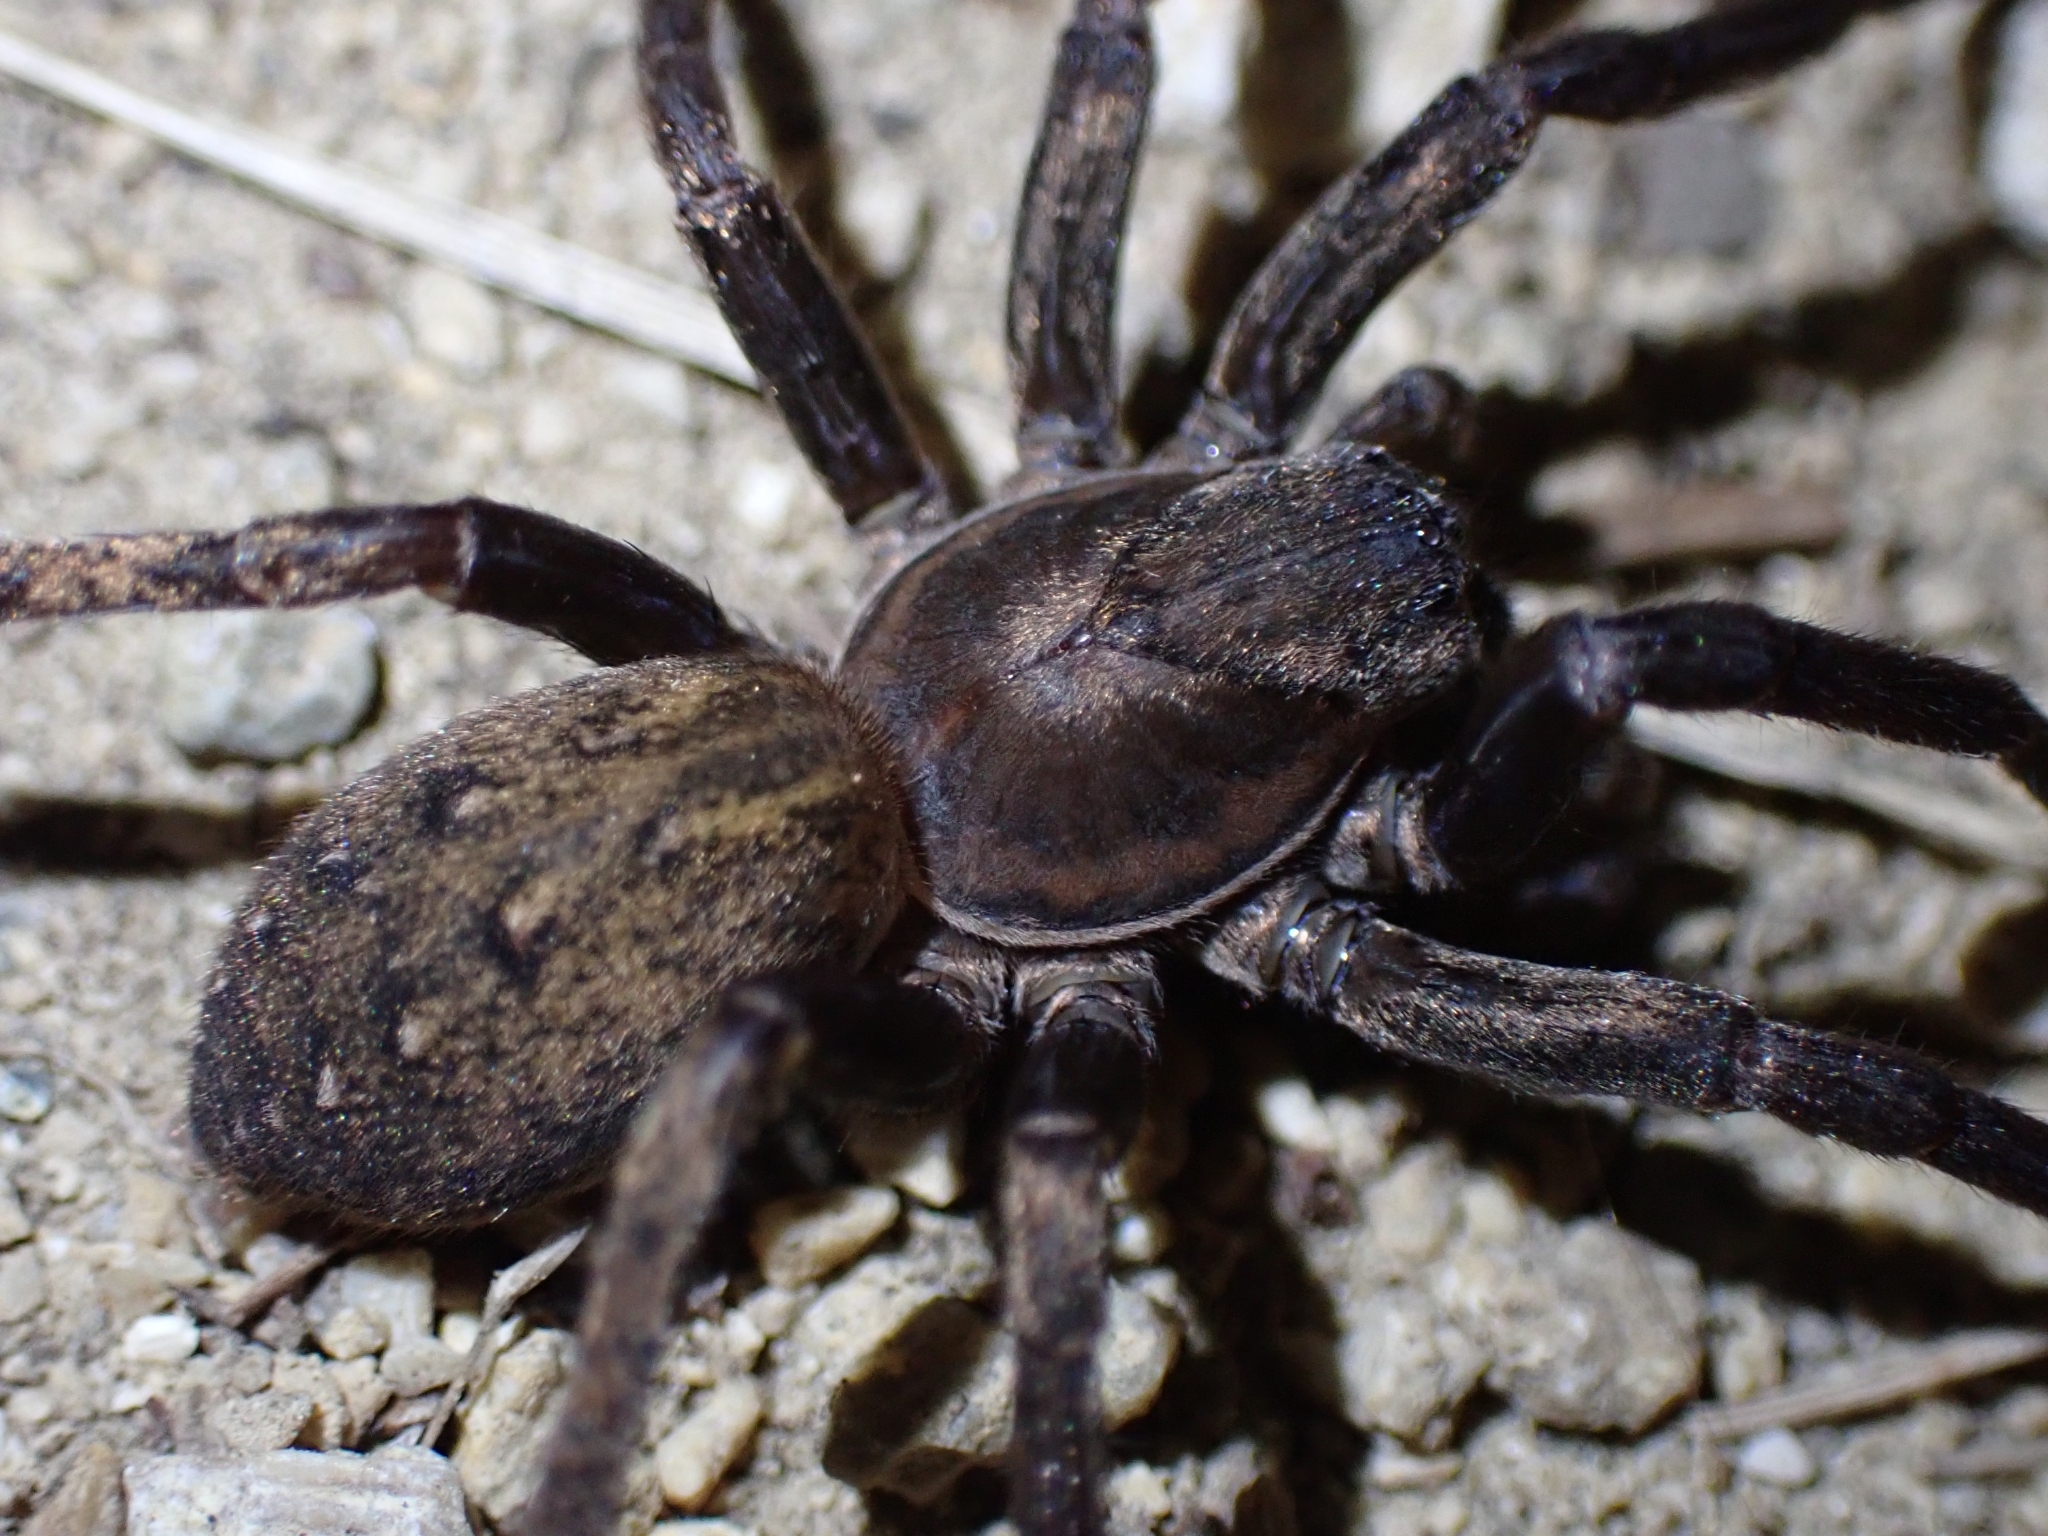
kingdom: Animalia
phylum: Arthropoda
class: Arachnida
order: Araneae
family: Zoropsidae
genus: Uliodon
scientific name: Uliodon albopunctatus
